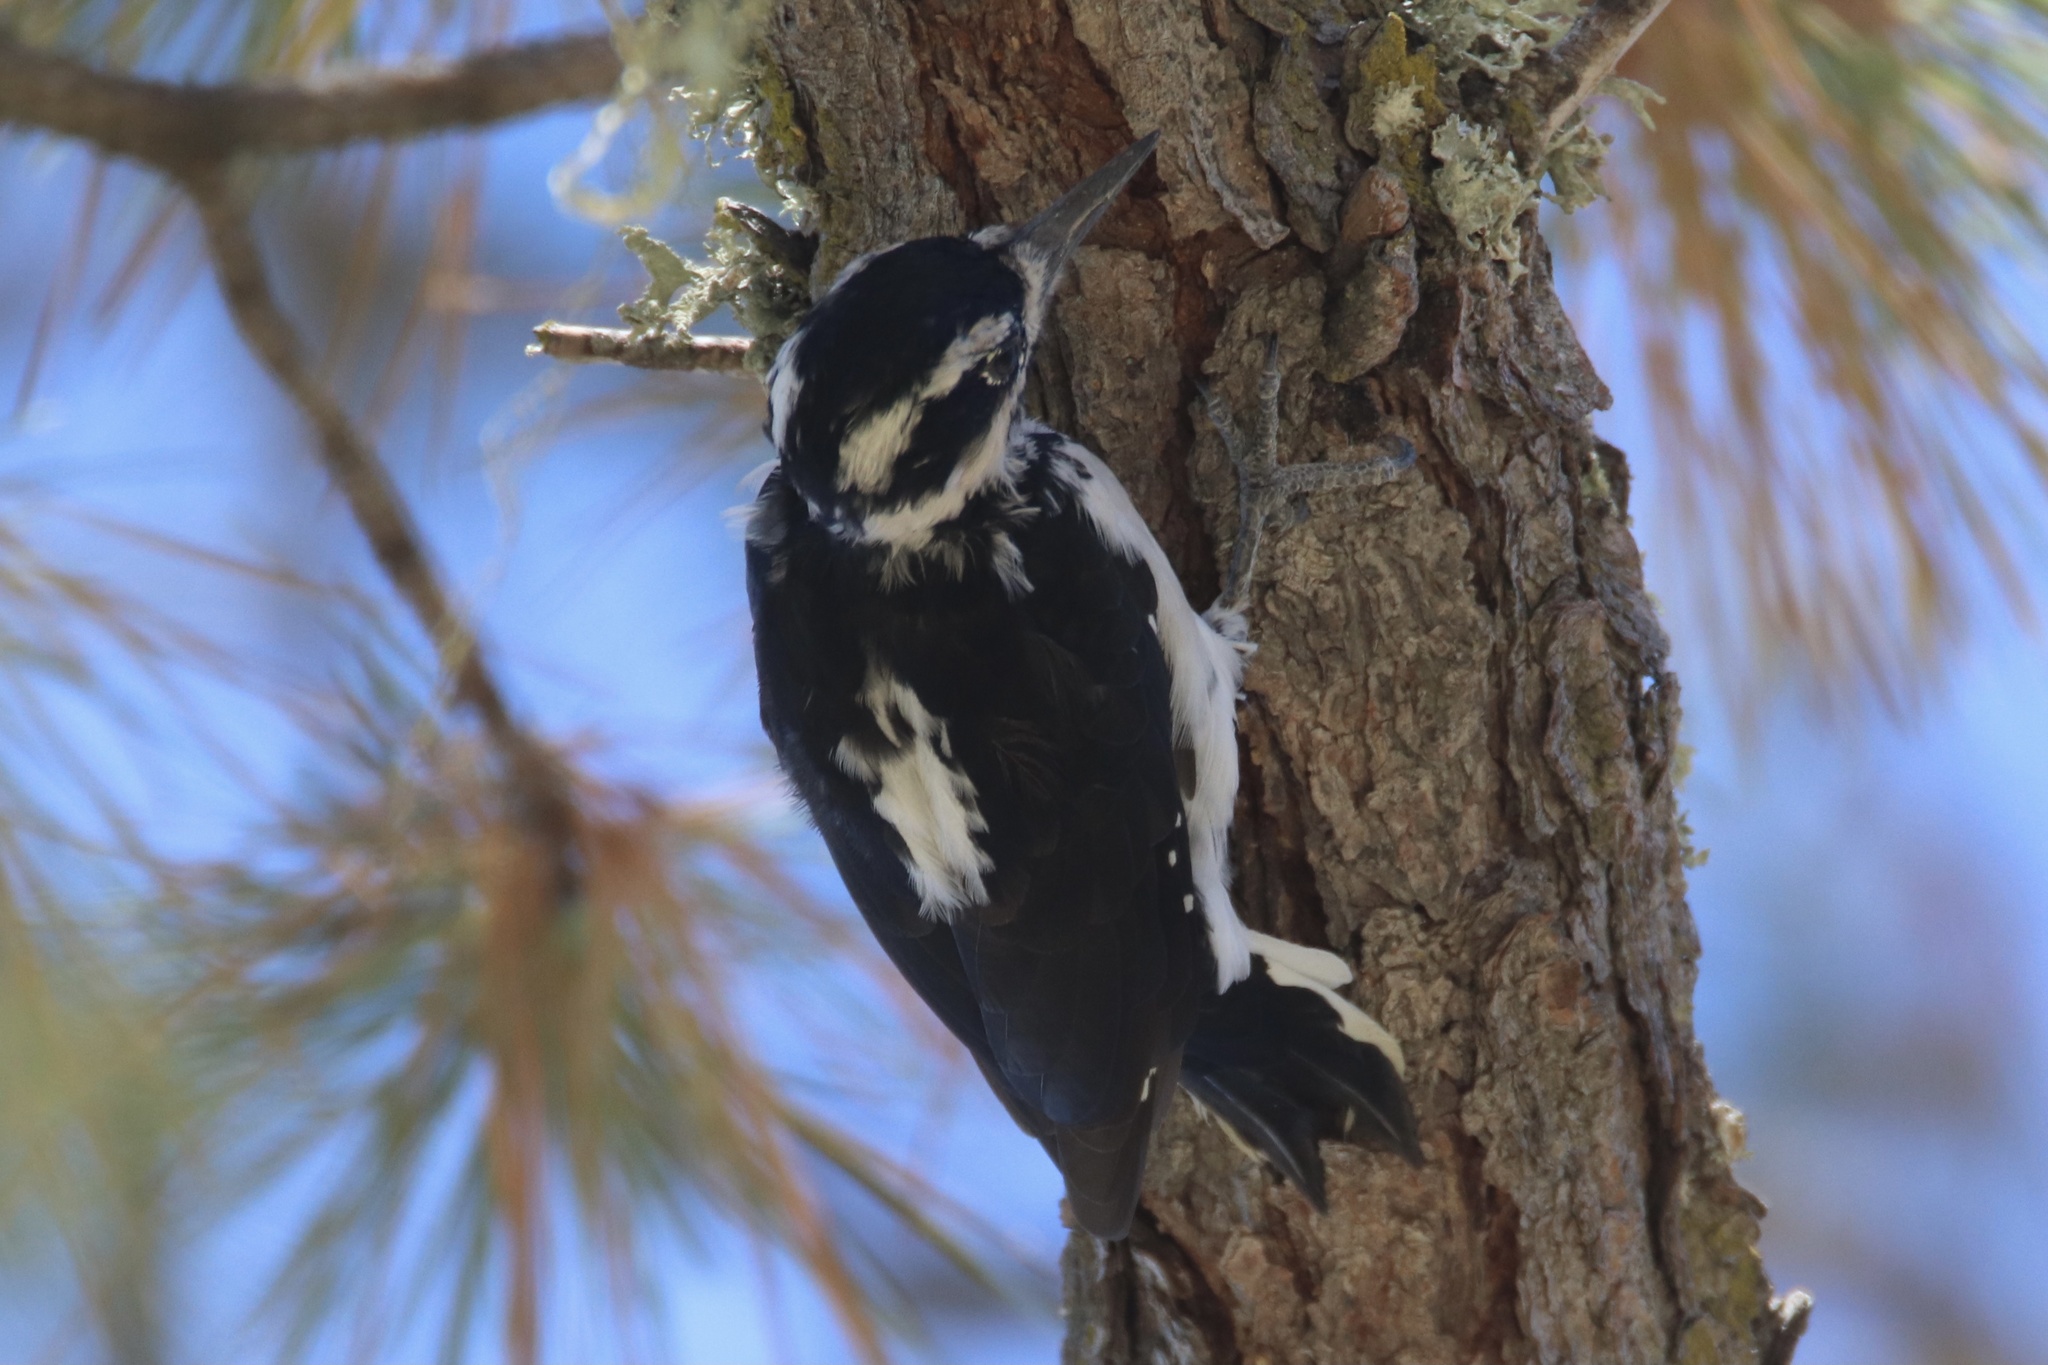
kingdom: Animalia
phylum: Chordata
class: Aves
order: Piciformes
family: Picidae
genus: Leuconotopicus
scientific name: Leuconotopicus villosus
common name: Hairy woodpecker
